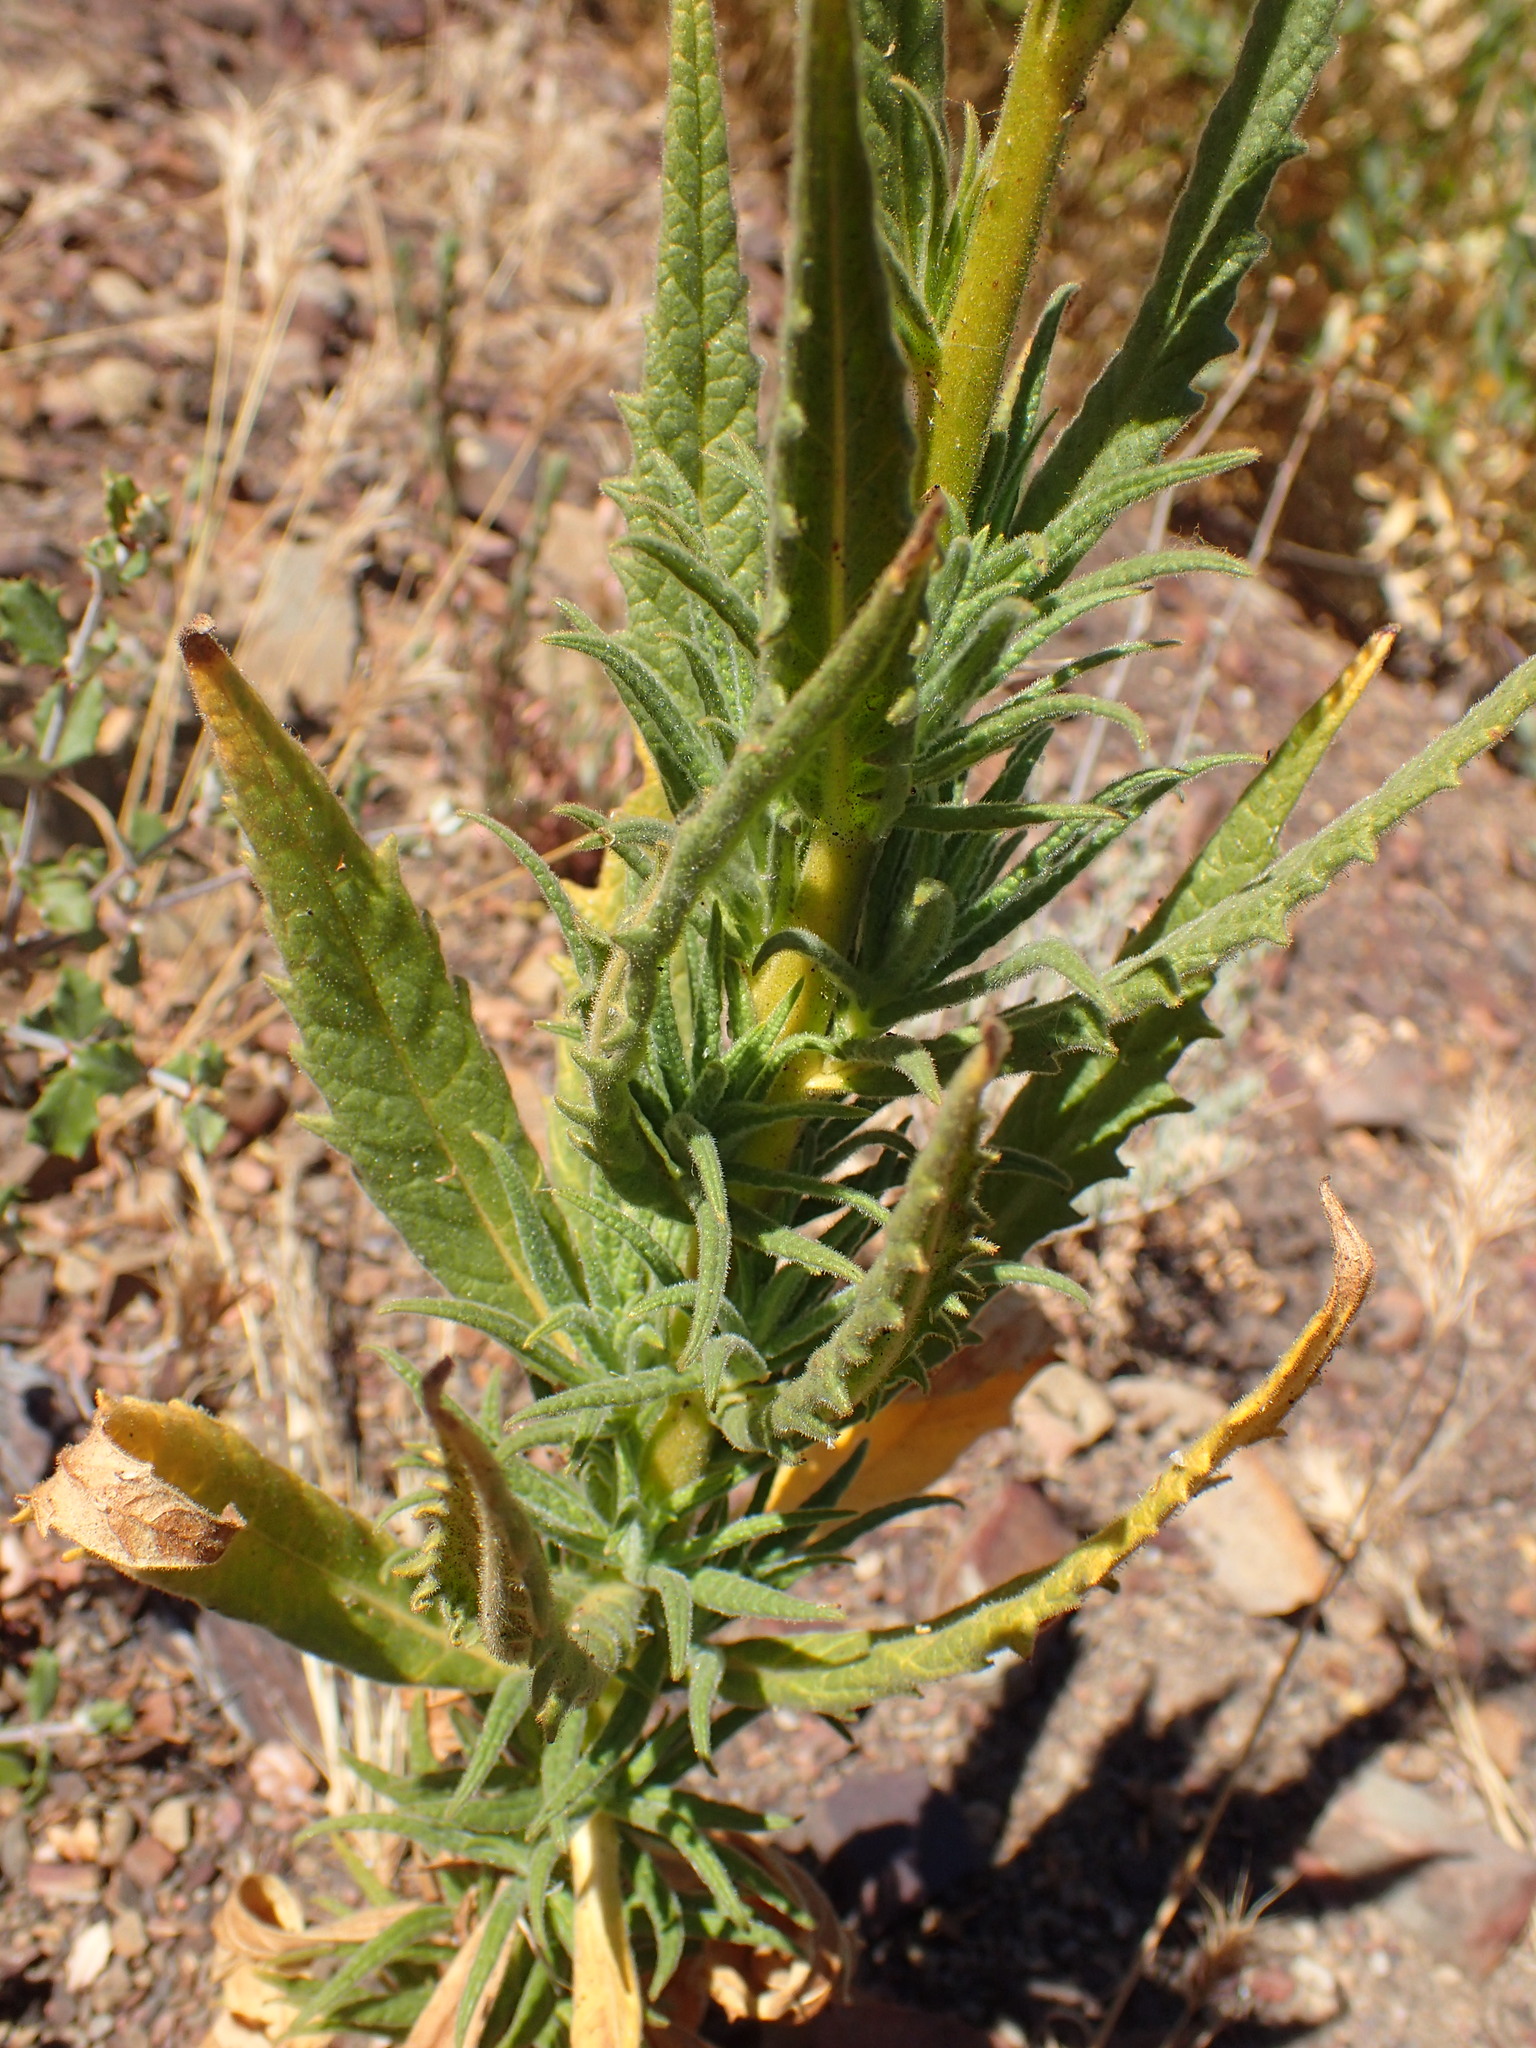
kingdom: Plantae
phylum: Tracheophyta
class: Magnoliopsida
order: Boraginales
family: Namaceae
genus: Turricula
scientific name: Turricula parryi
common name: Poodle-dog-bush
